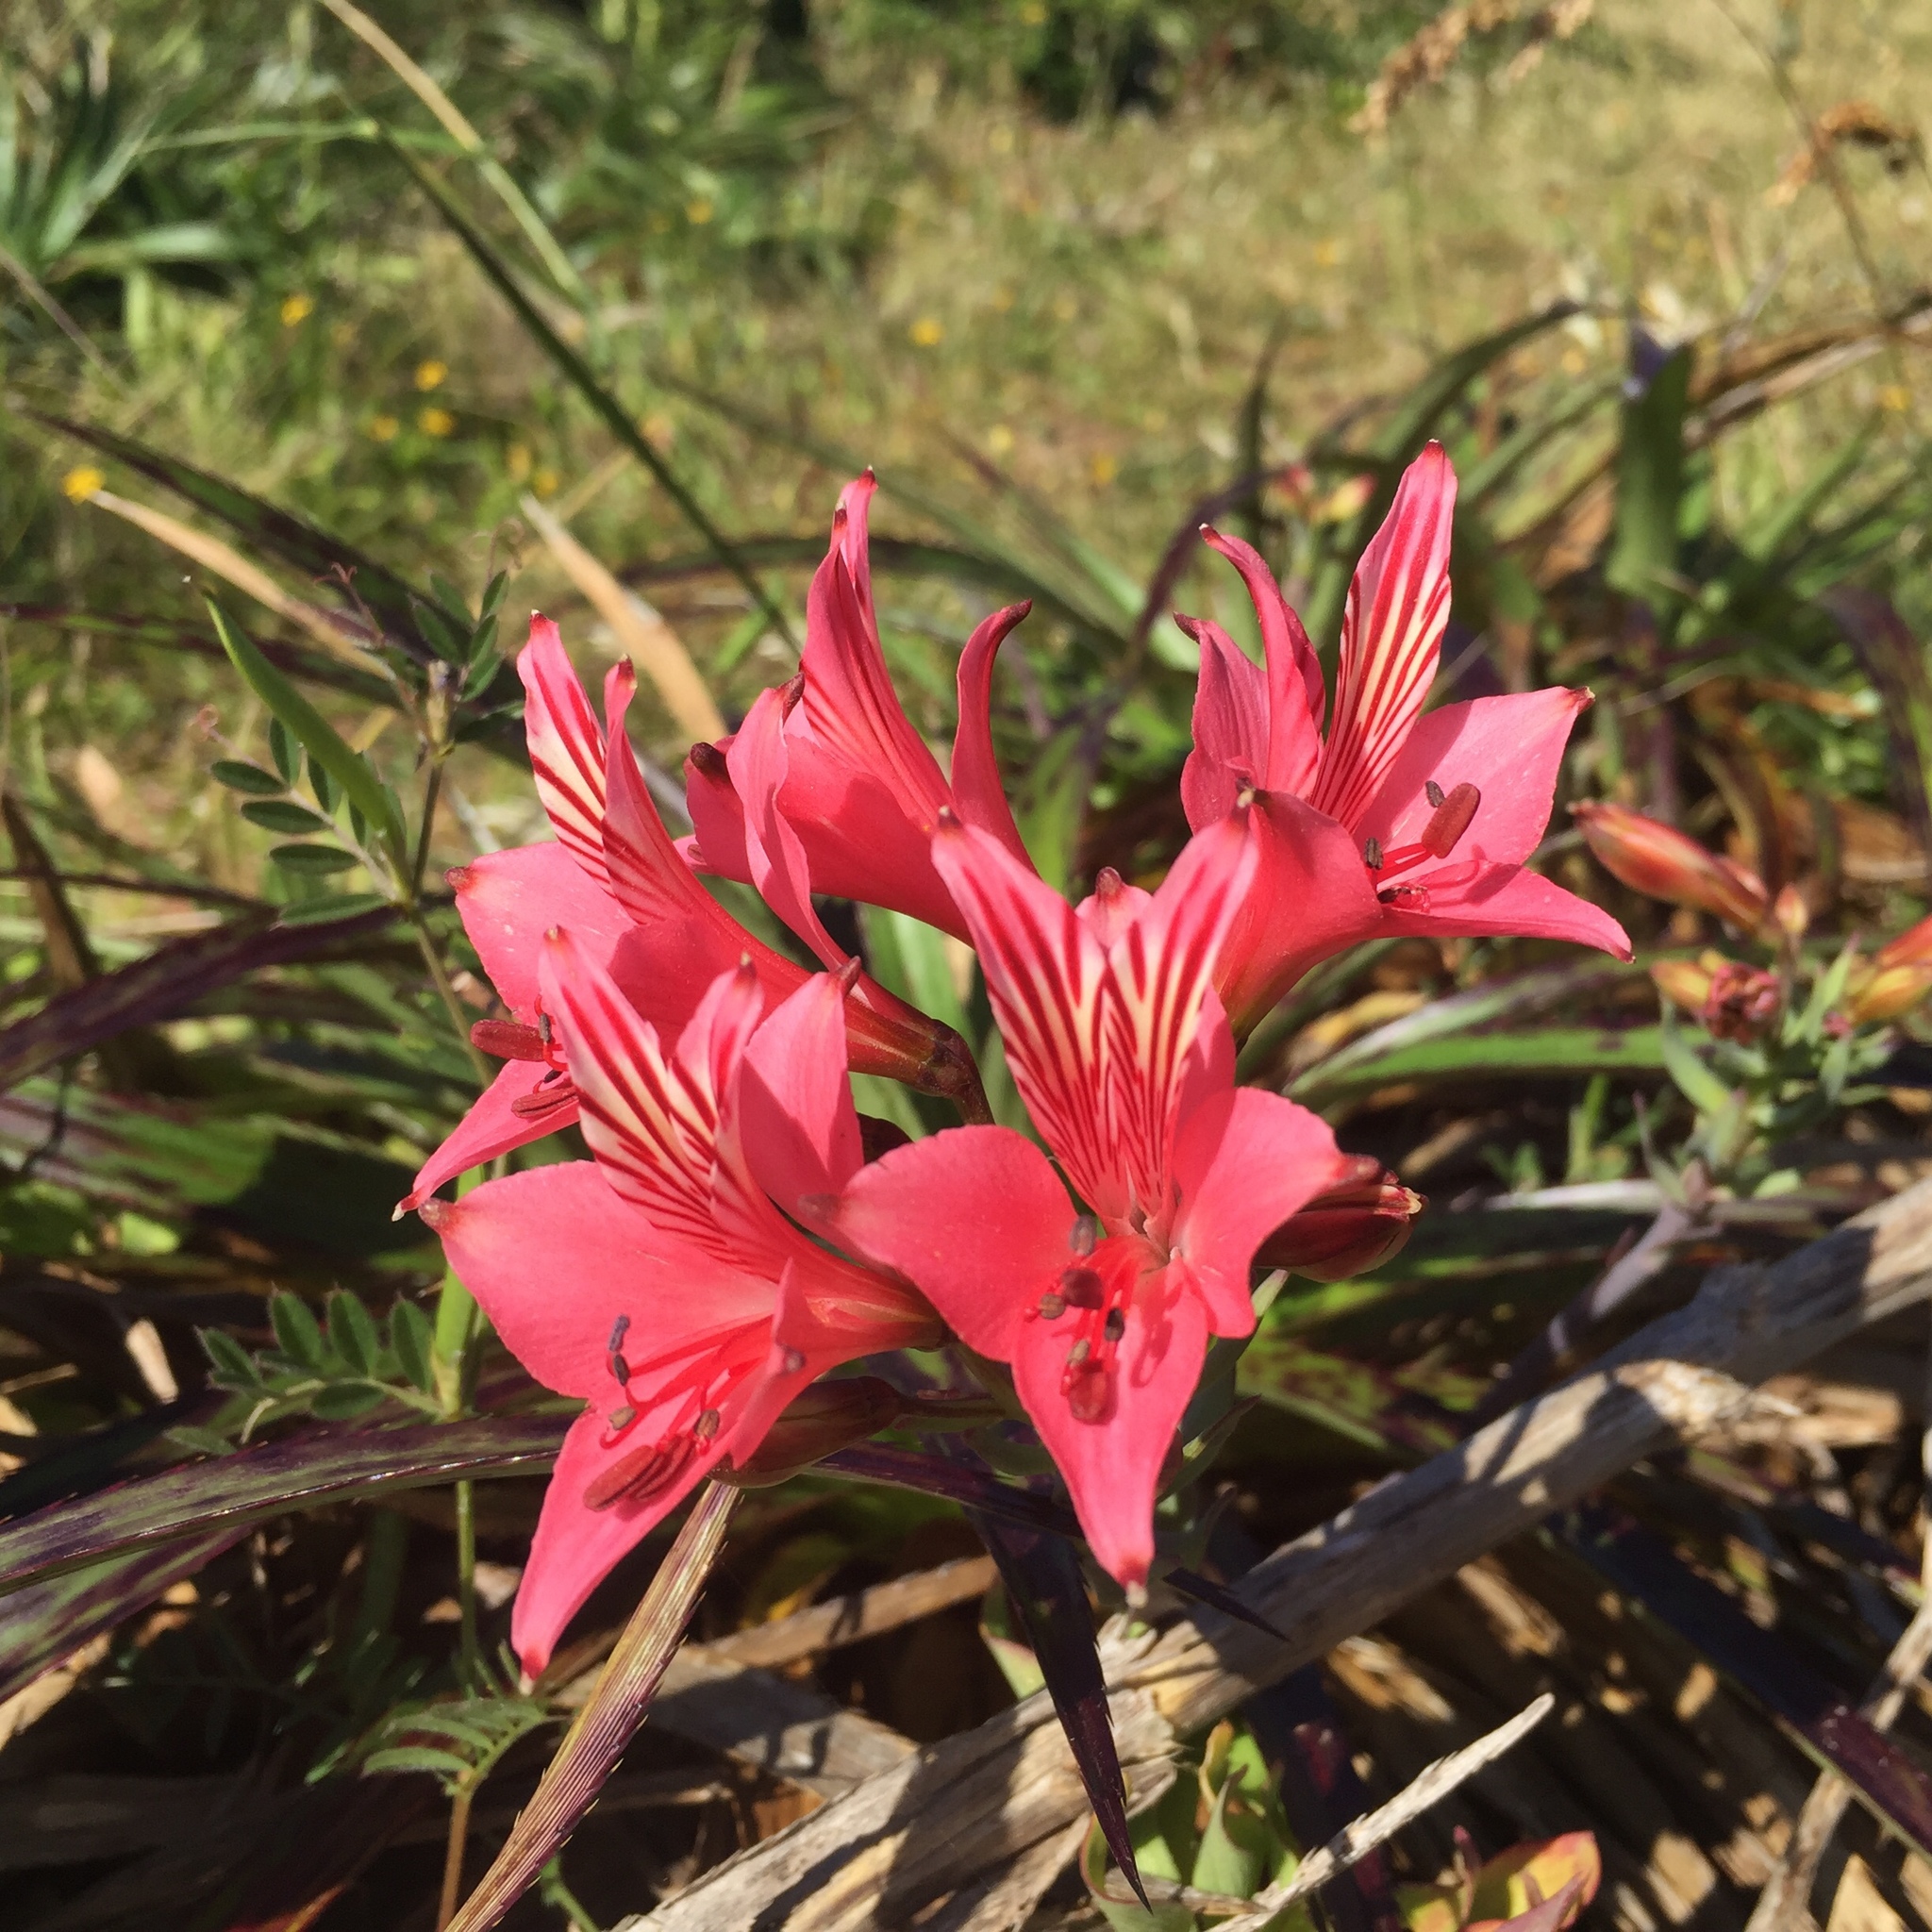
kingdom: Plantae
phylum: Tracheophyta
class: Liliopsida
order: Liliales
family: Alstroemeriaceae
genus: Alstroemeria
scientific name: Alstroemeria ligtu
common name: St. martin's-flower
